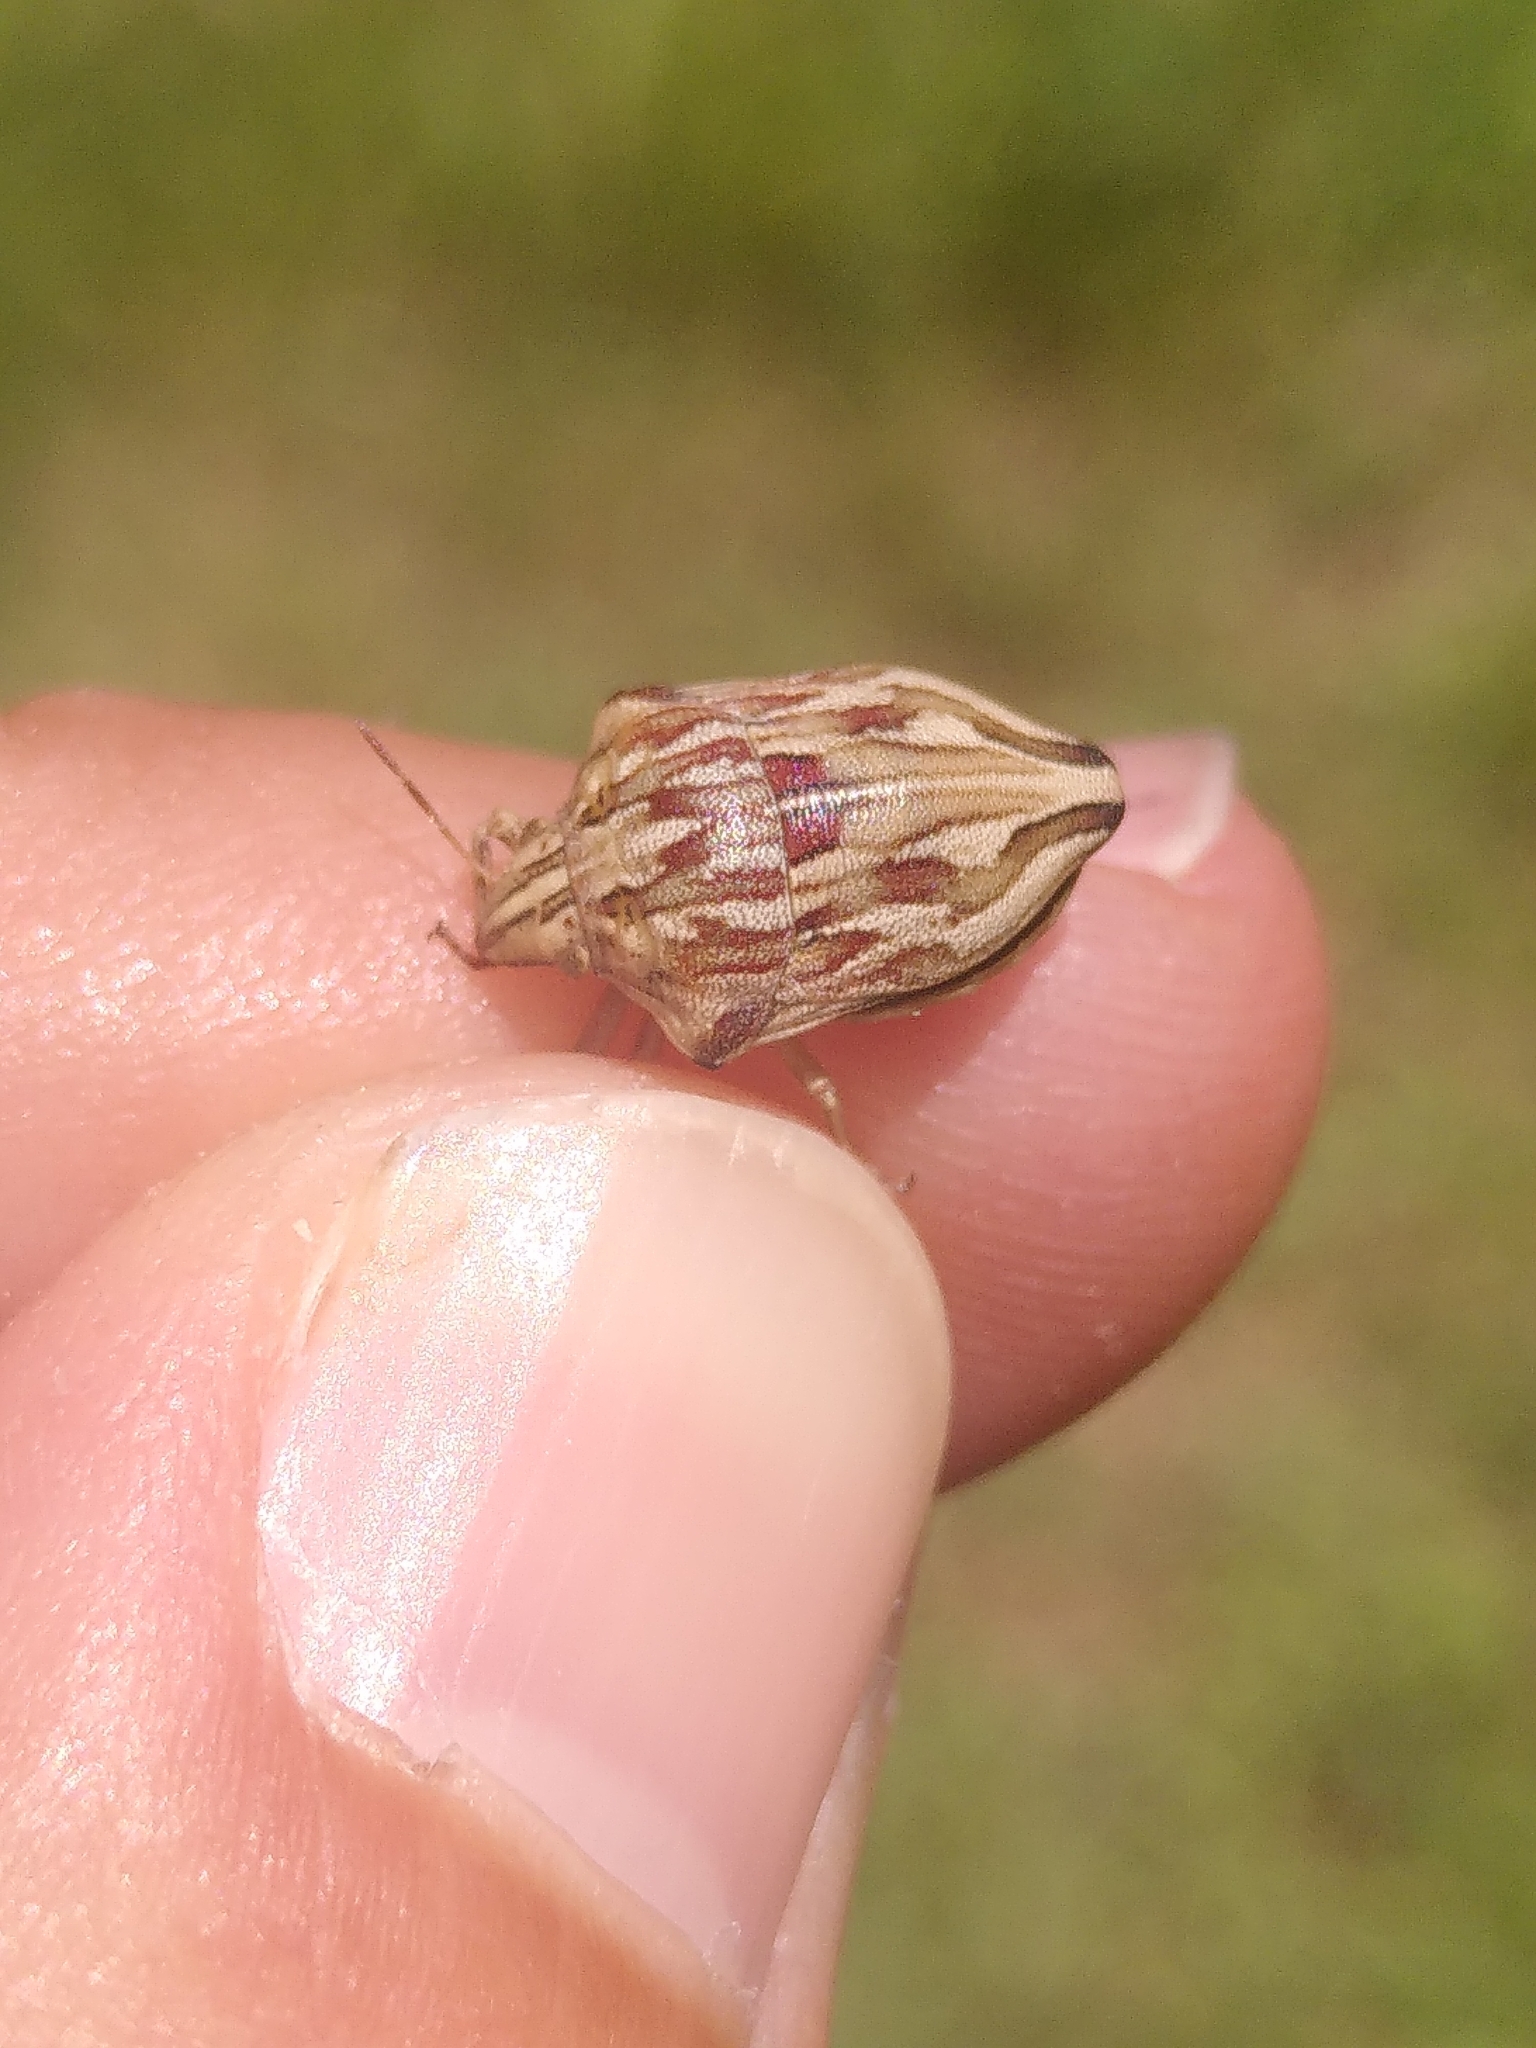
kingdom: Animalia
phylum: Arthropoda
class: Insecta
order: Hemiptera
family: Scutelleridae
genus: Odontotarsus
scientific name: Odontotarsus robustus
